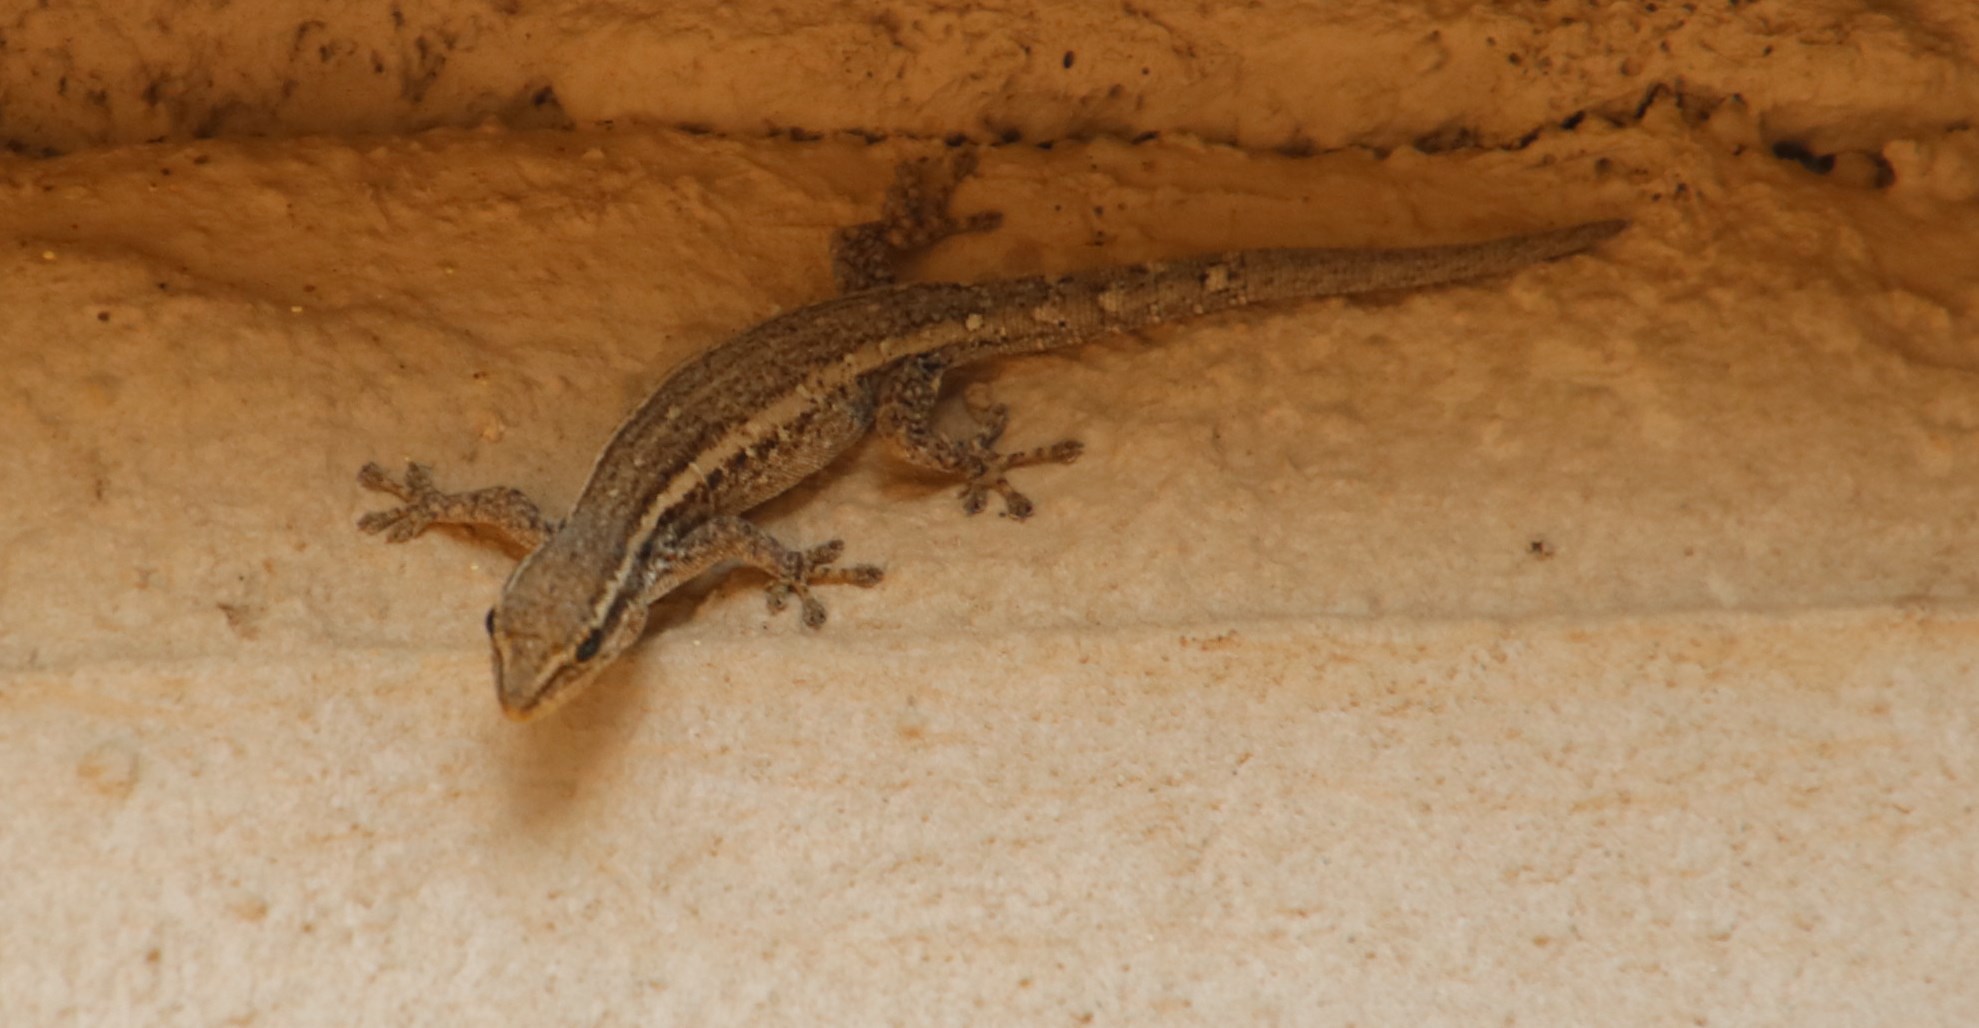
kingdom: Animalia
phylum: Chordata
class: Squamata
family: Gekkonidae
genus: Lygodactylus
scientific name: Lygodactylus capensis
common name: Cape dwarf gecko
